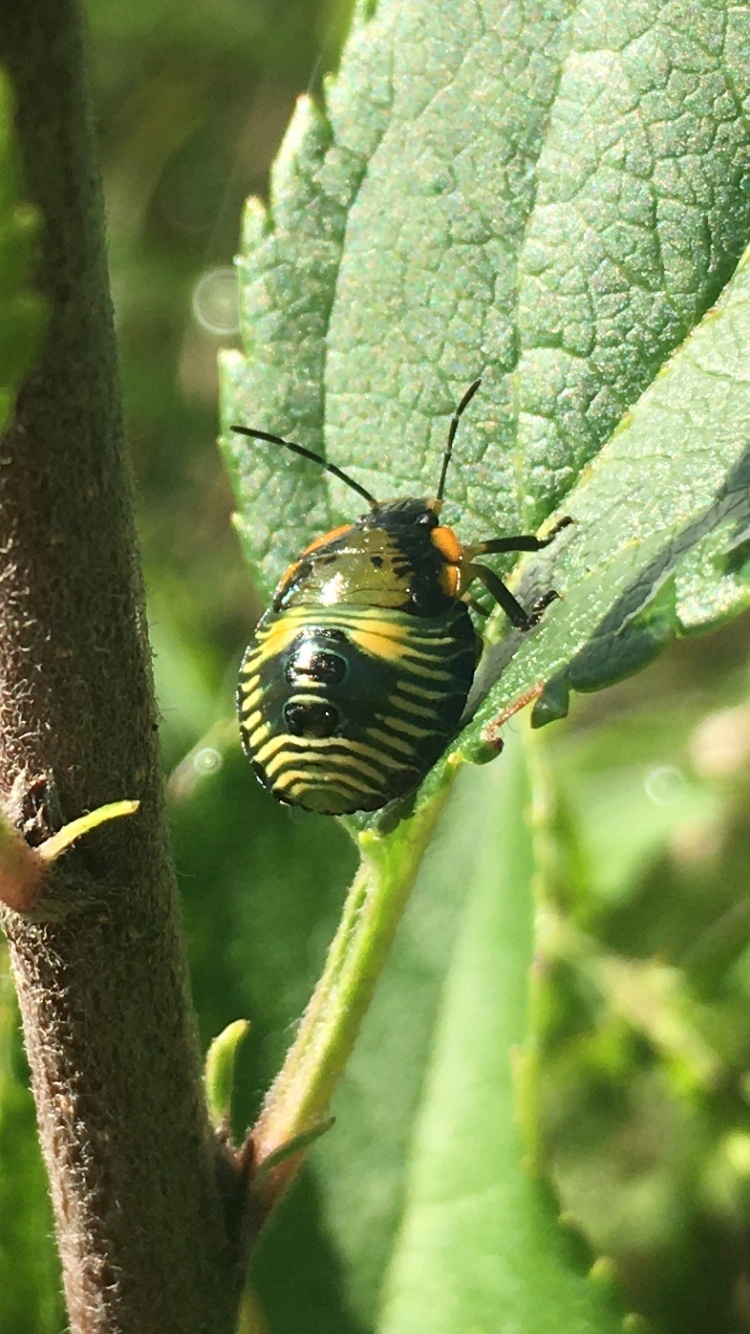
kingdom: Animalia
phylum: Arthropoda
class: Insecta
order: Hemiptera
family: Pentatomidae
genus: Chinavia
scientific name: Chinavia hilaris
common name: Green stink bug
